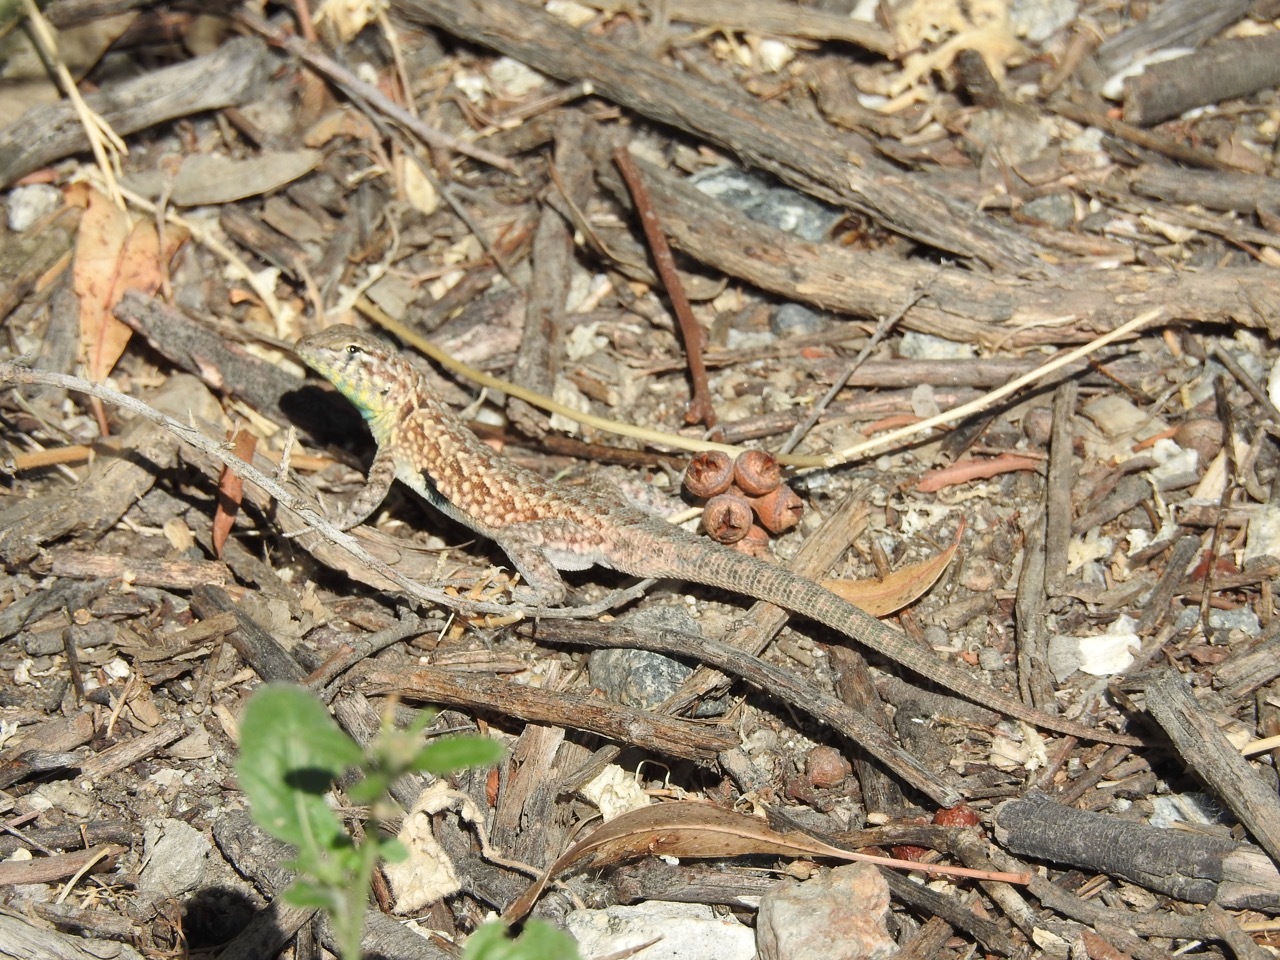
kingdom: Animalia
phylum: Chordata
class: Squamata
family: Phrynosomatidae
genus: Uta
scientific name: Uta stansburiana
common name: Side-blotched lizard
